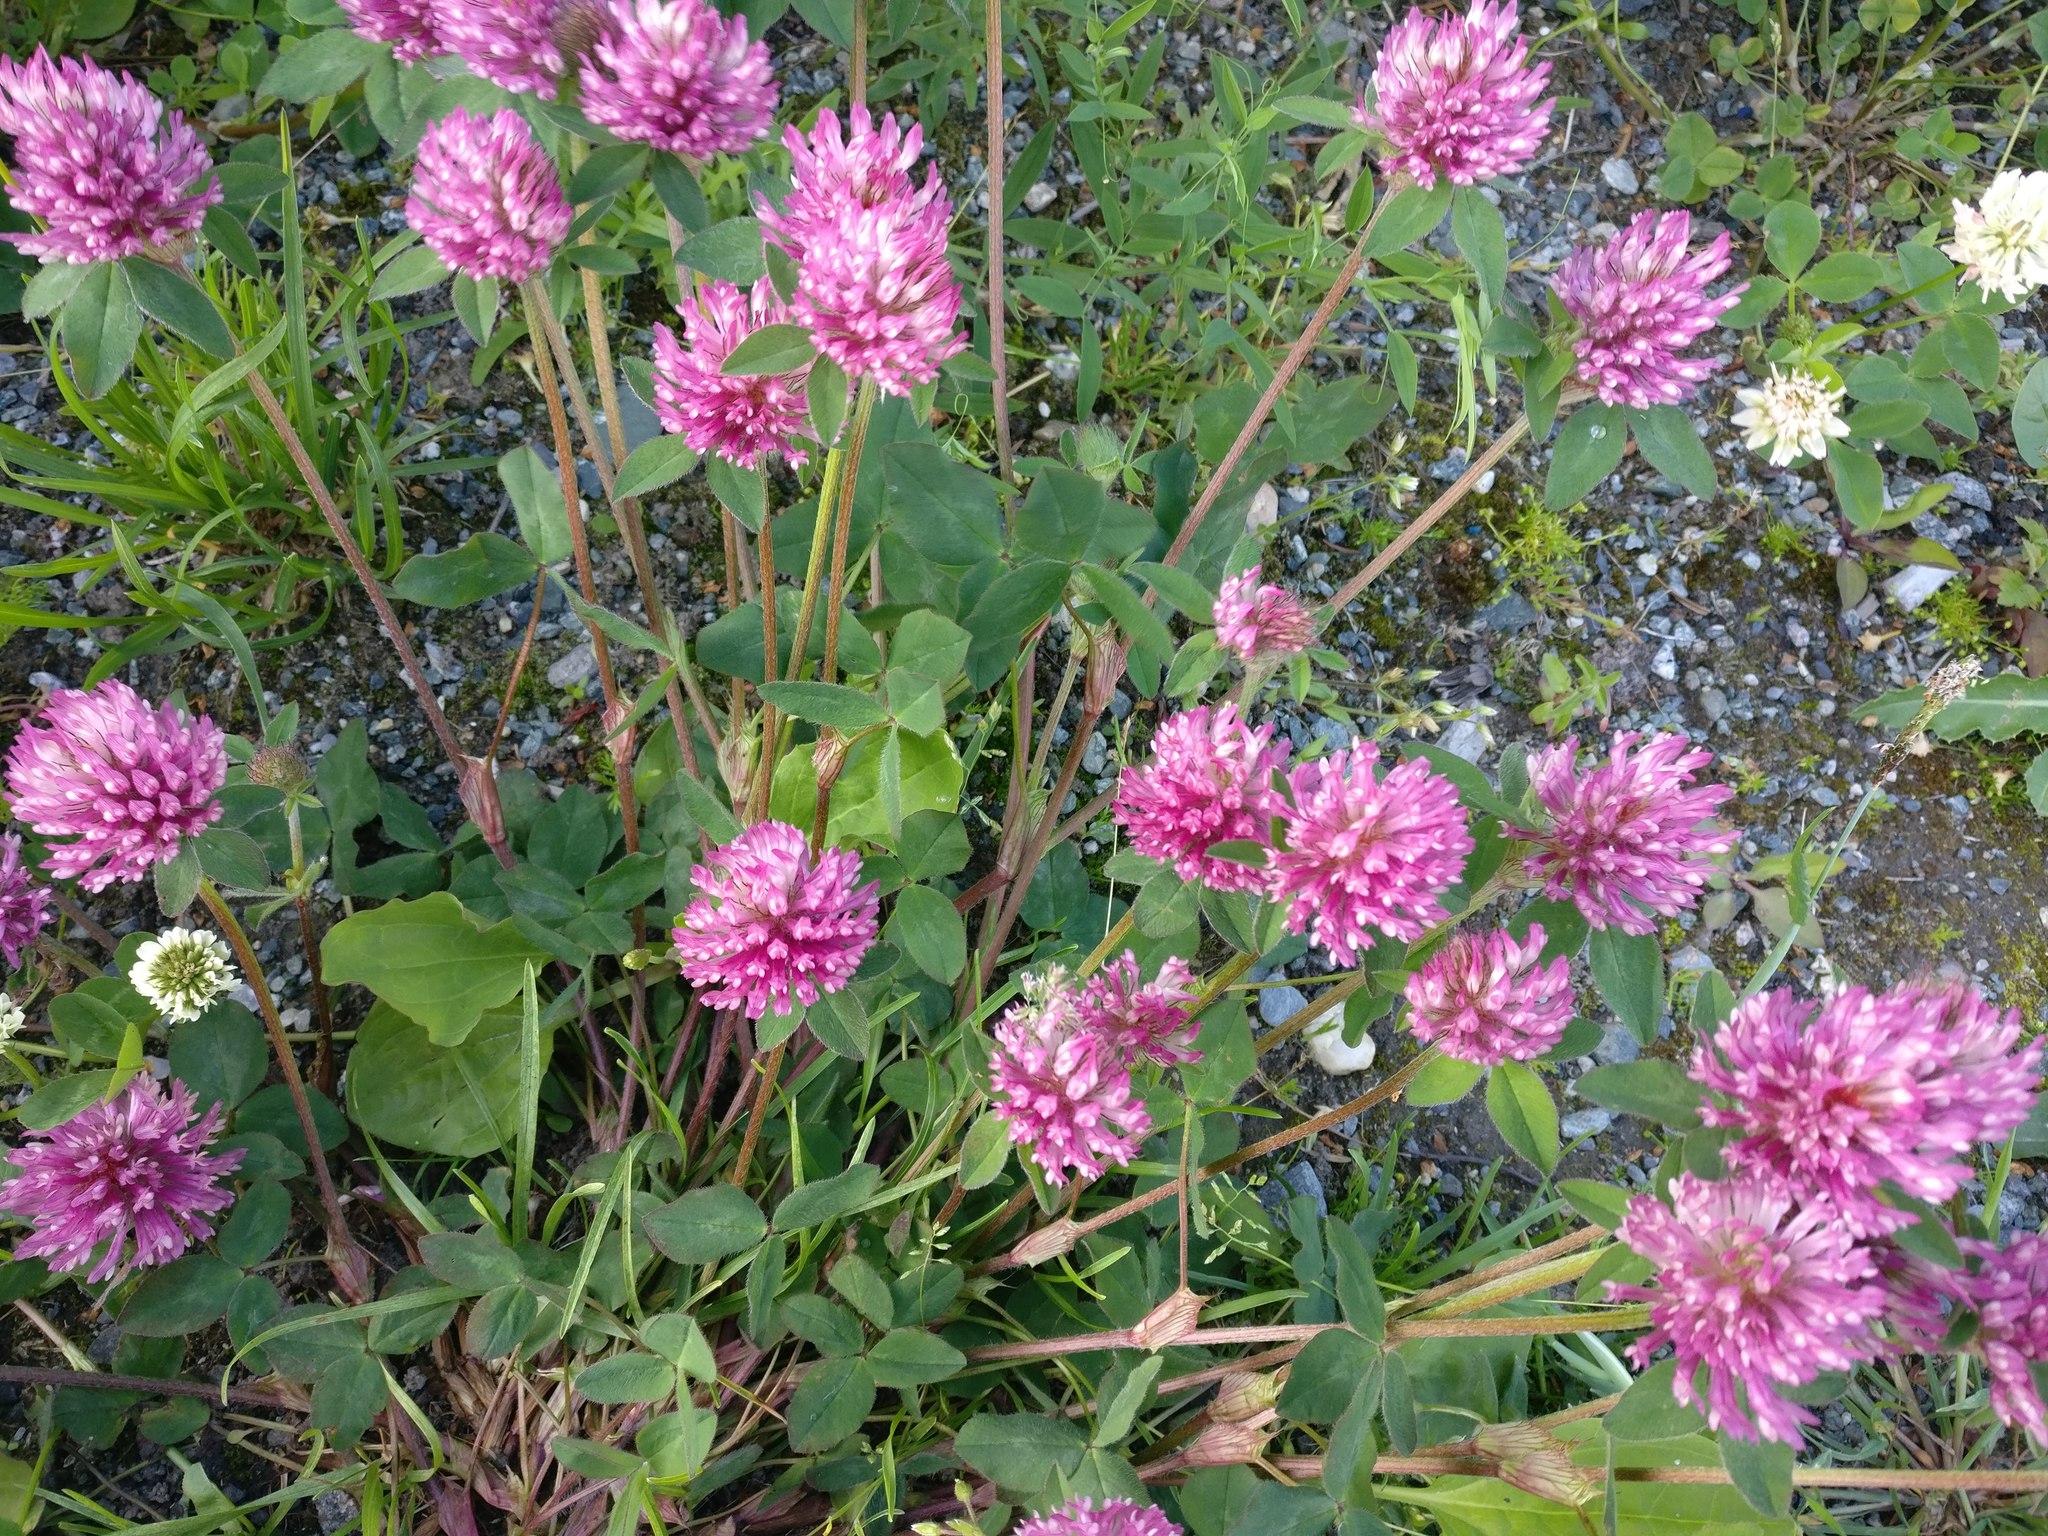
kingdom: Plantae
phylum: Tracheophyta
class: Magnoliopsida
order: Fabales
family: Fabaceae
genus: Trifolium
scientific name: Trifolium pratense
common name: Red clover
